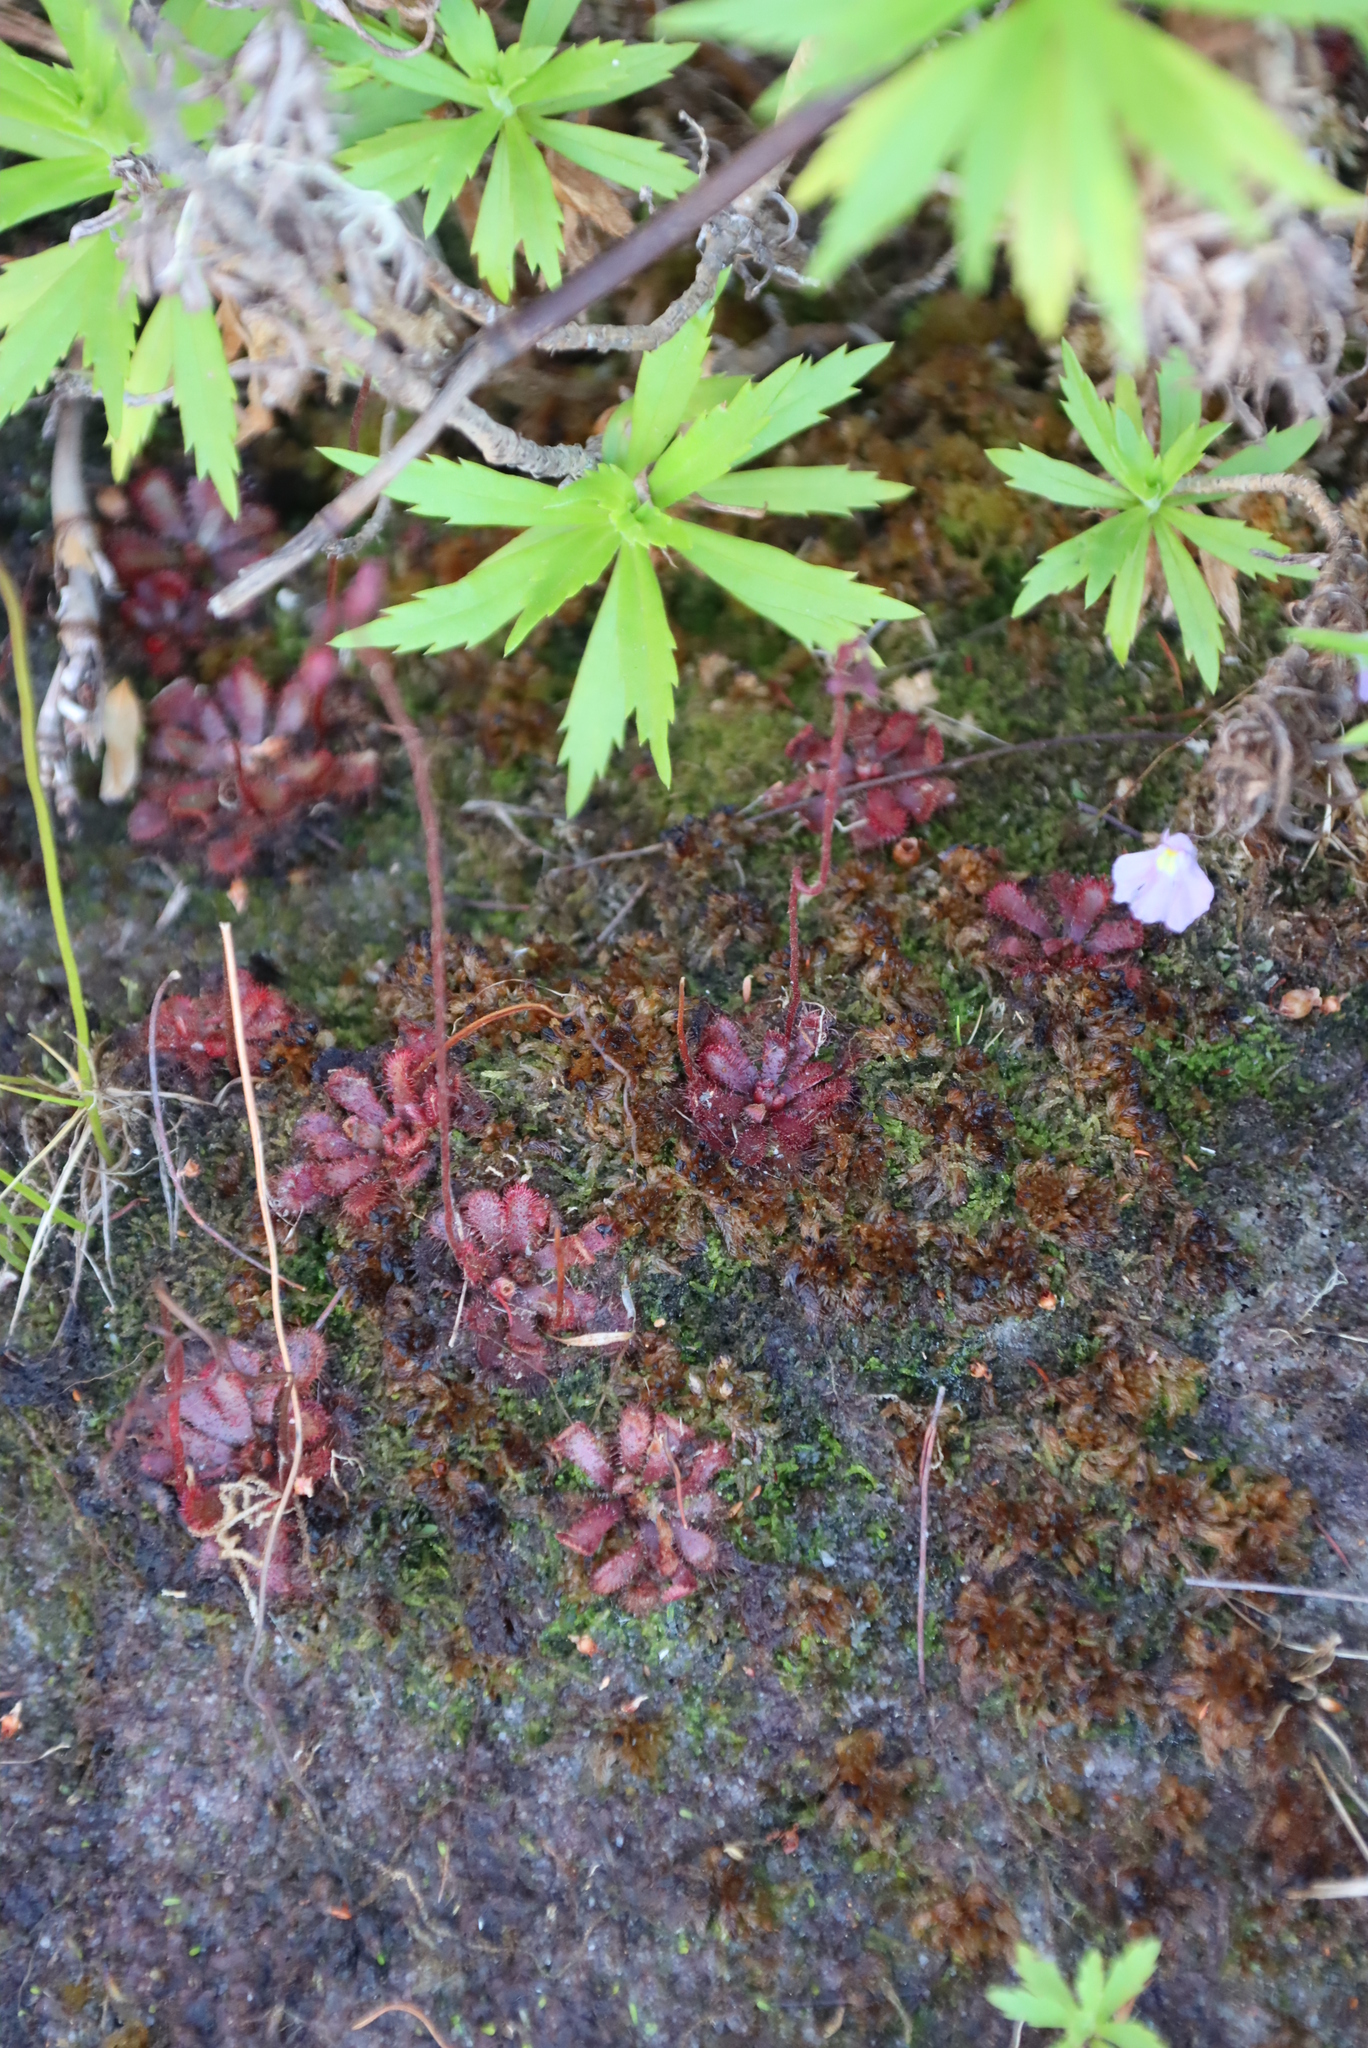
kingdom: Plantae
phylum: Tracheophyta
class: Magnoliopsida
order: Caryophyllales
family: Droseraceae
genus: Drosera
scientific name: Drosera aliciae
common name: Alice sundew
